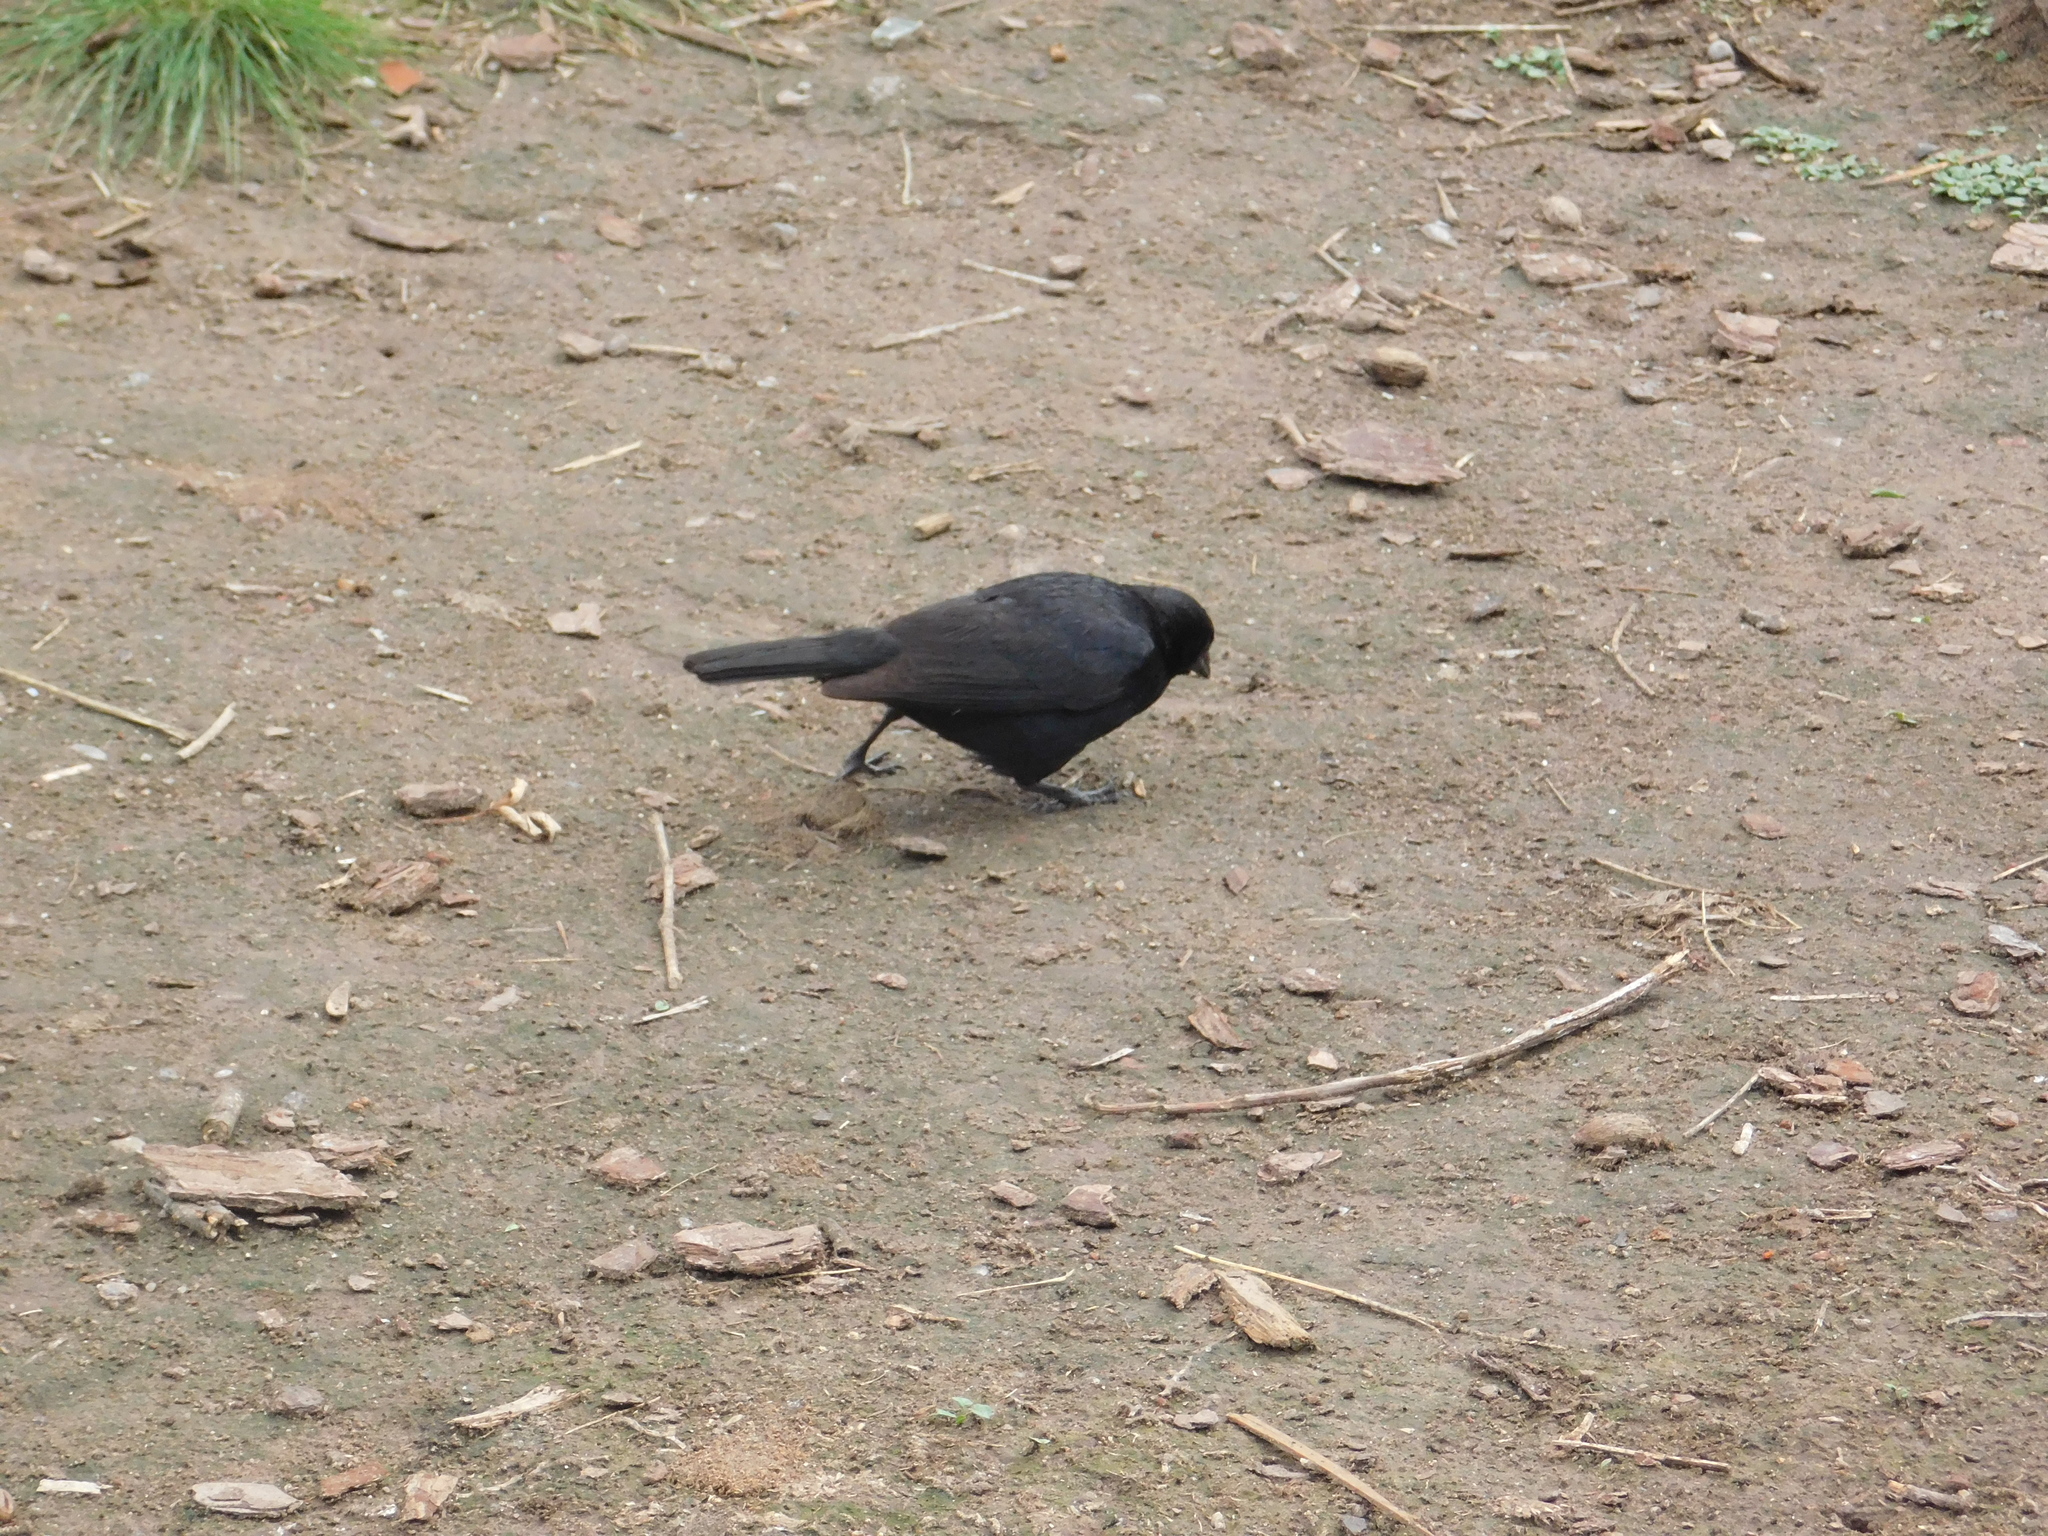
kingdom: Animalia
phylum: Chordata
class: Aves
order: Passeriformes
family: Icteridae
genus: Molothrus
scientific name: Molothrus rufoaxillaris
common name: Screaming cowbird
